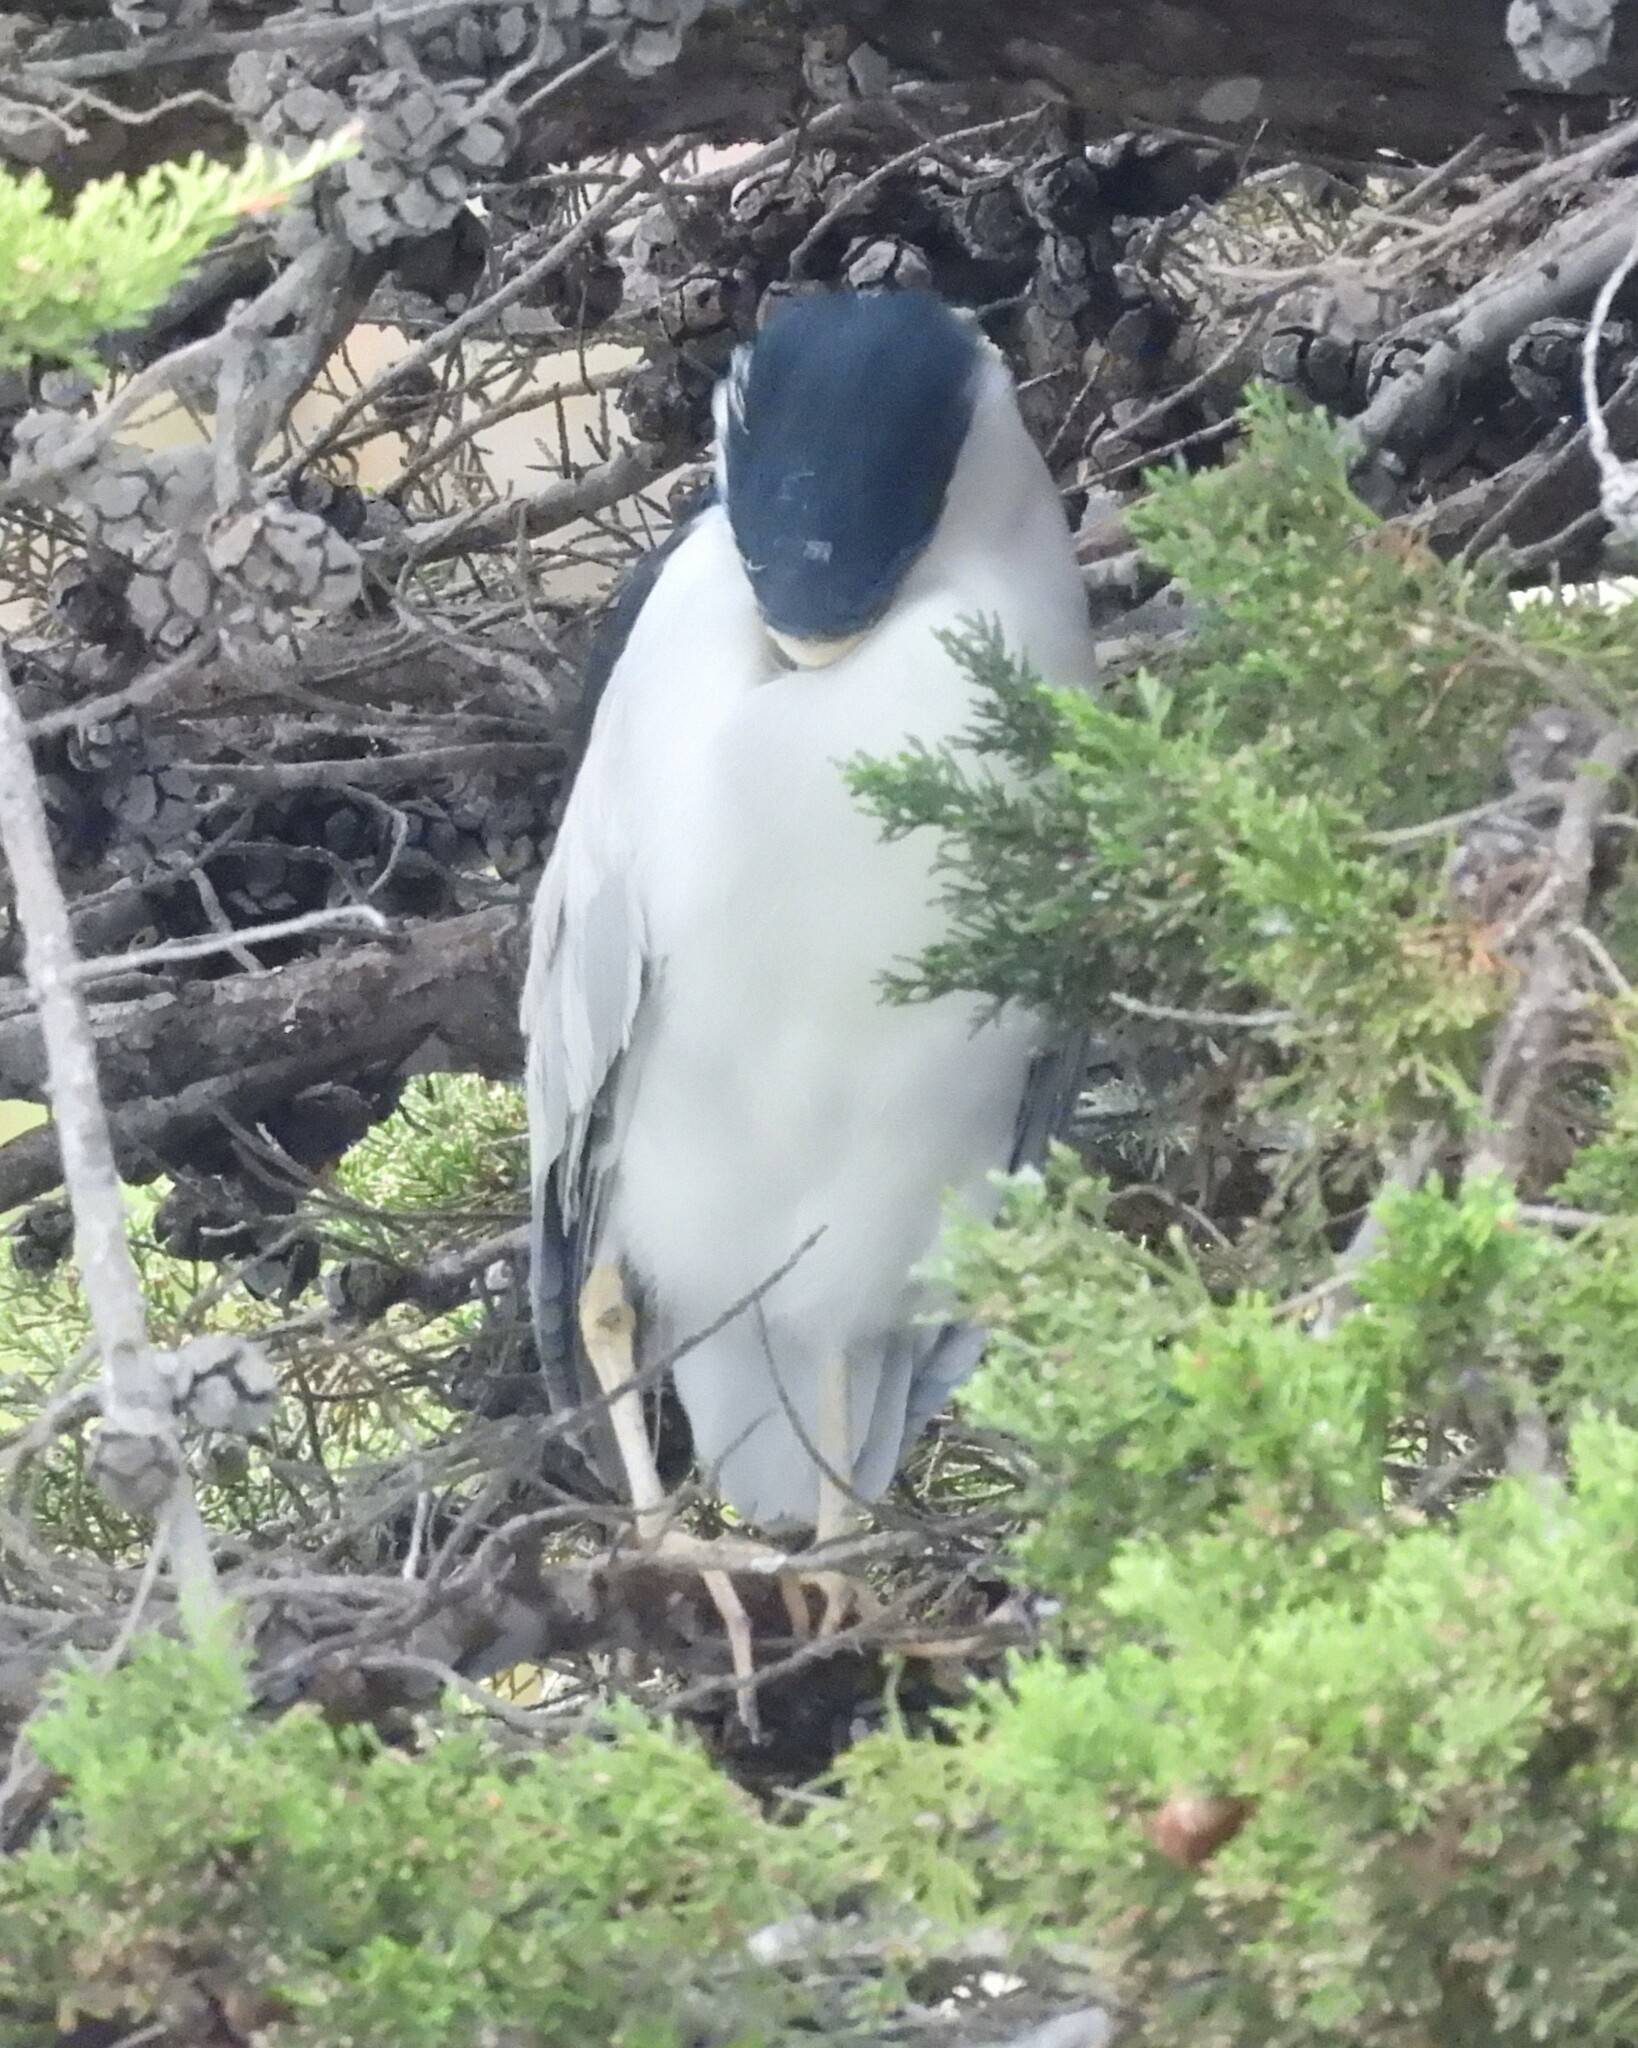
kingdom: Animalia
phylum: Chordata
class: Aves
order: Pelecaniformes
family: Ardeidae
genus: Nycticorax
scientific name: Nycticorax nycticorax
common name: Black-crowned night heron
